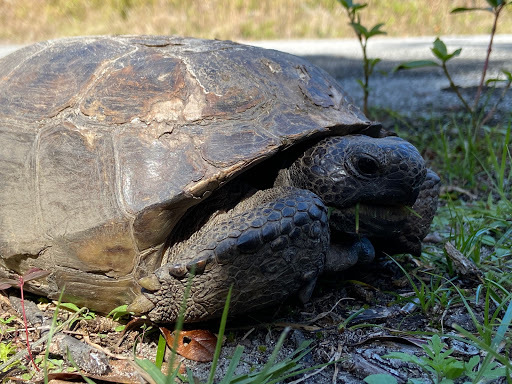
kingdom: Animalia
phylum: Chordata
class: Testudines
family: Testudinidae
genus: Gopherus
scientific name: Gopherus polyphemus
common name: Florida gopher tortoise
